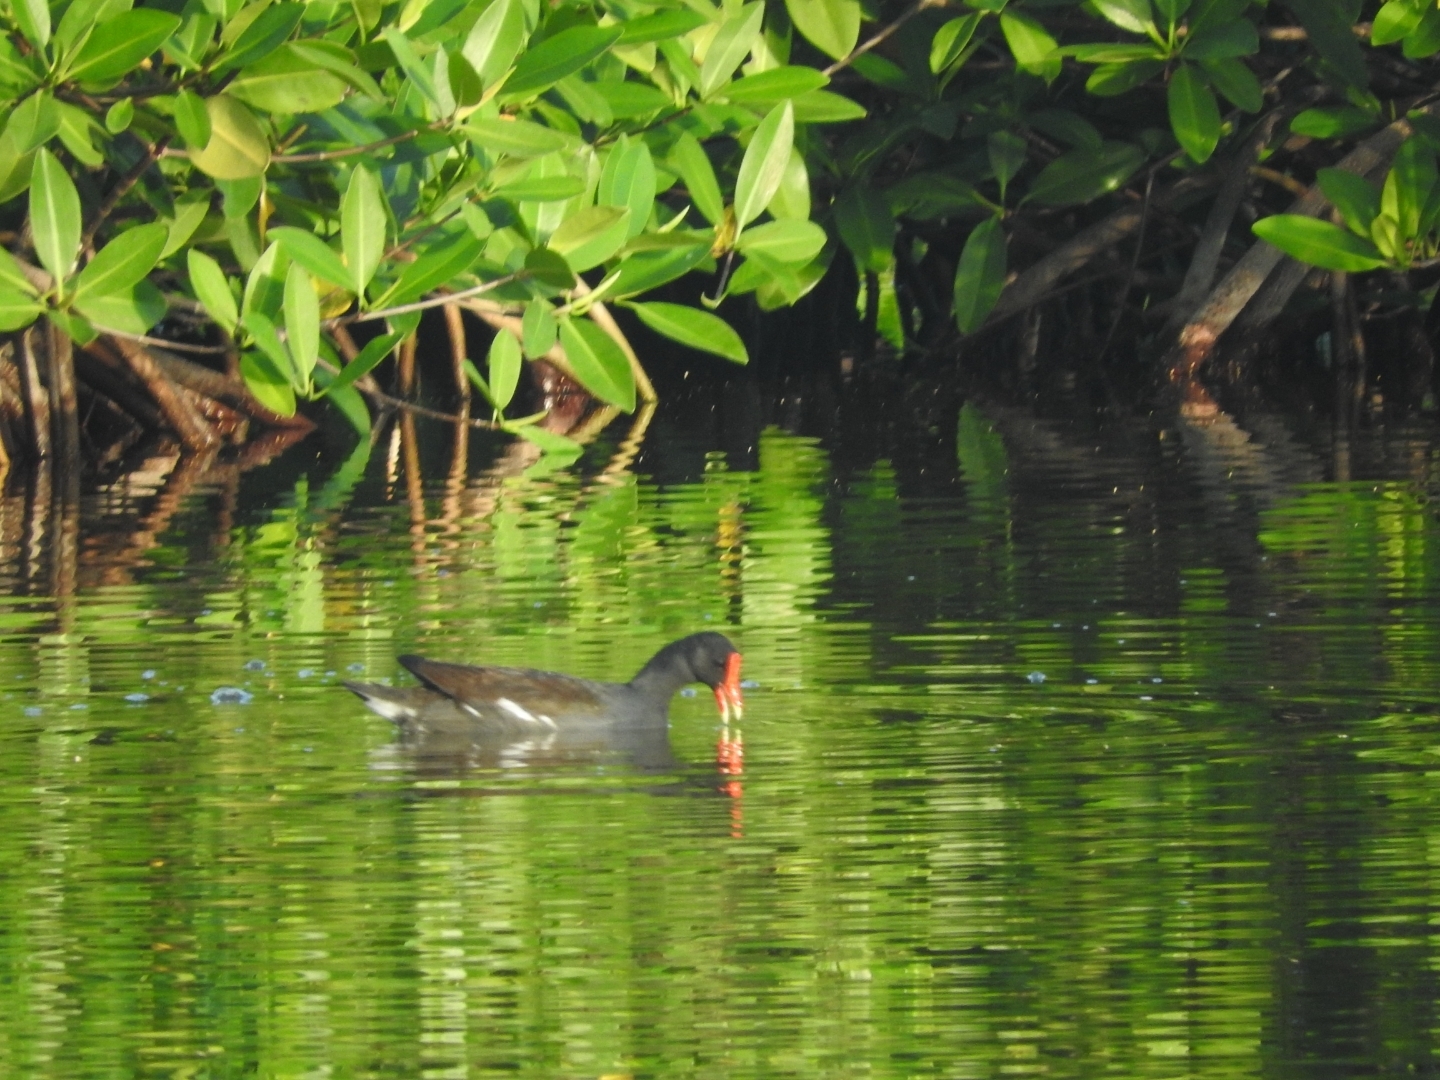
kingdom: Animalia
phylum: Chordata
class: Aves
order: Gruiformes
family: Rallidae
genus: Gallinula
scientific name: Gallinula chloropus
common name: Common moorhen
